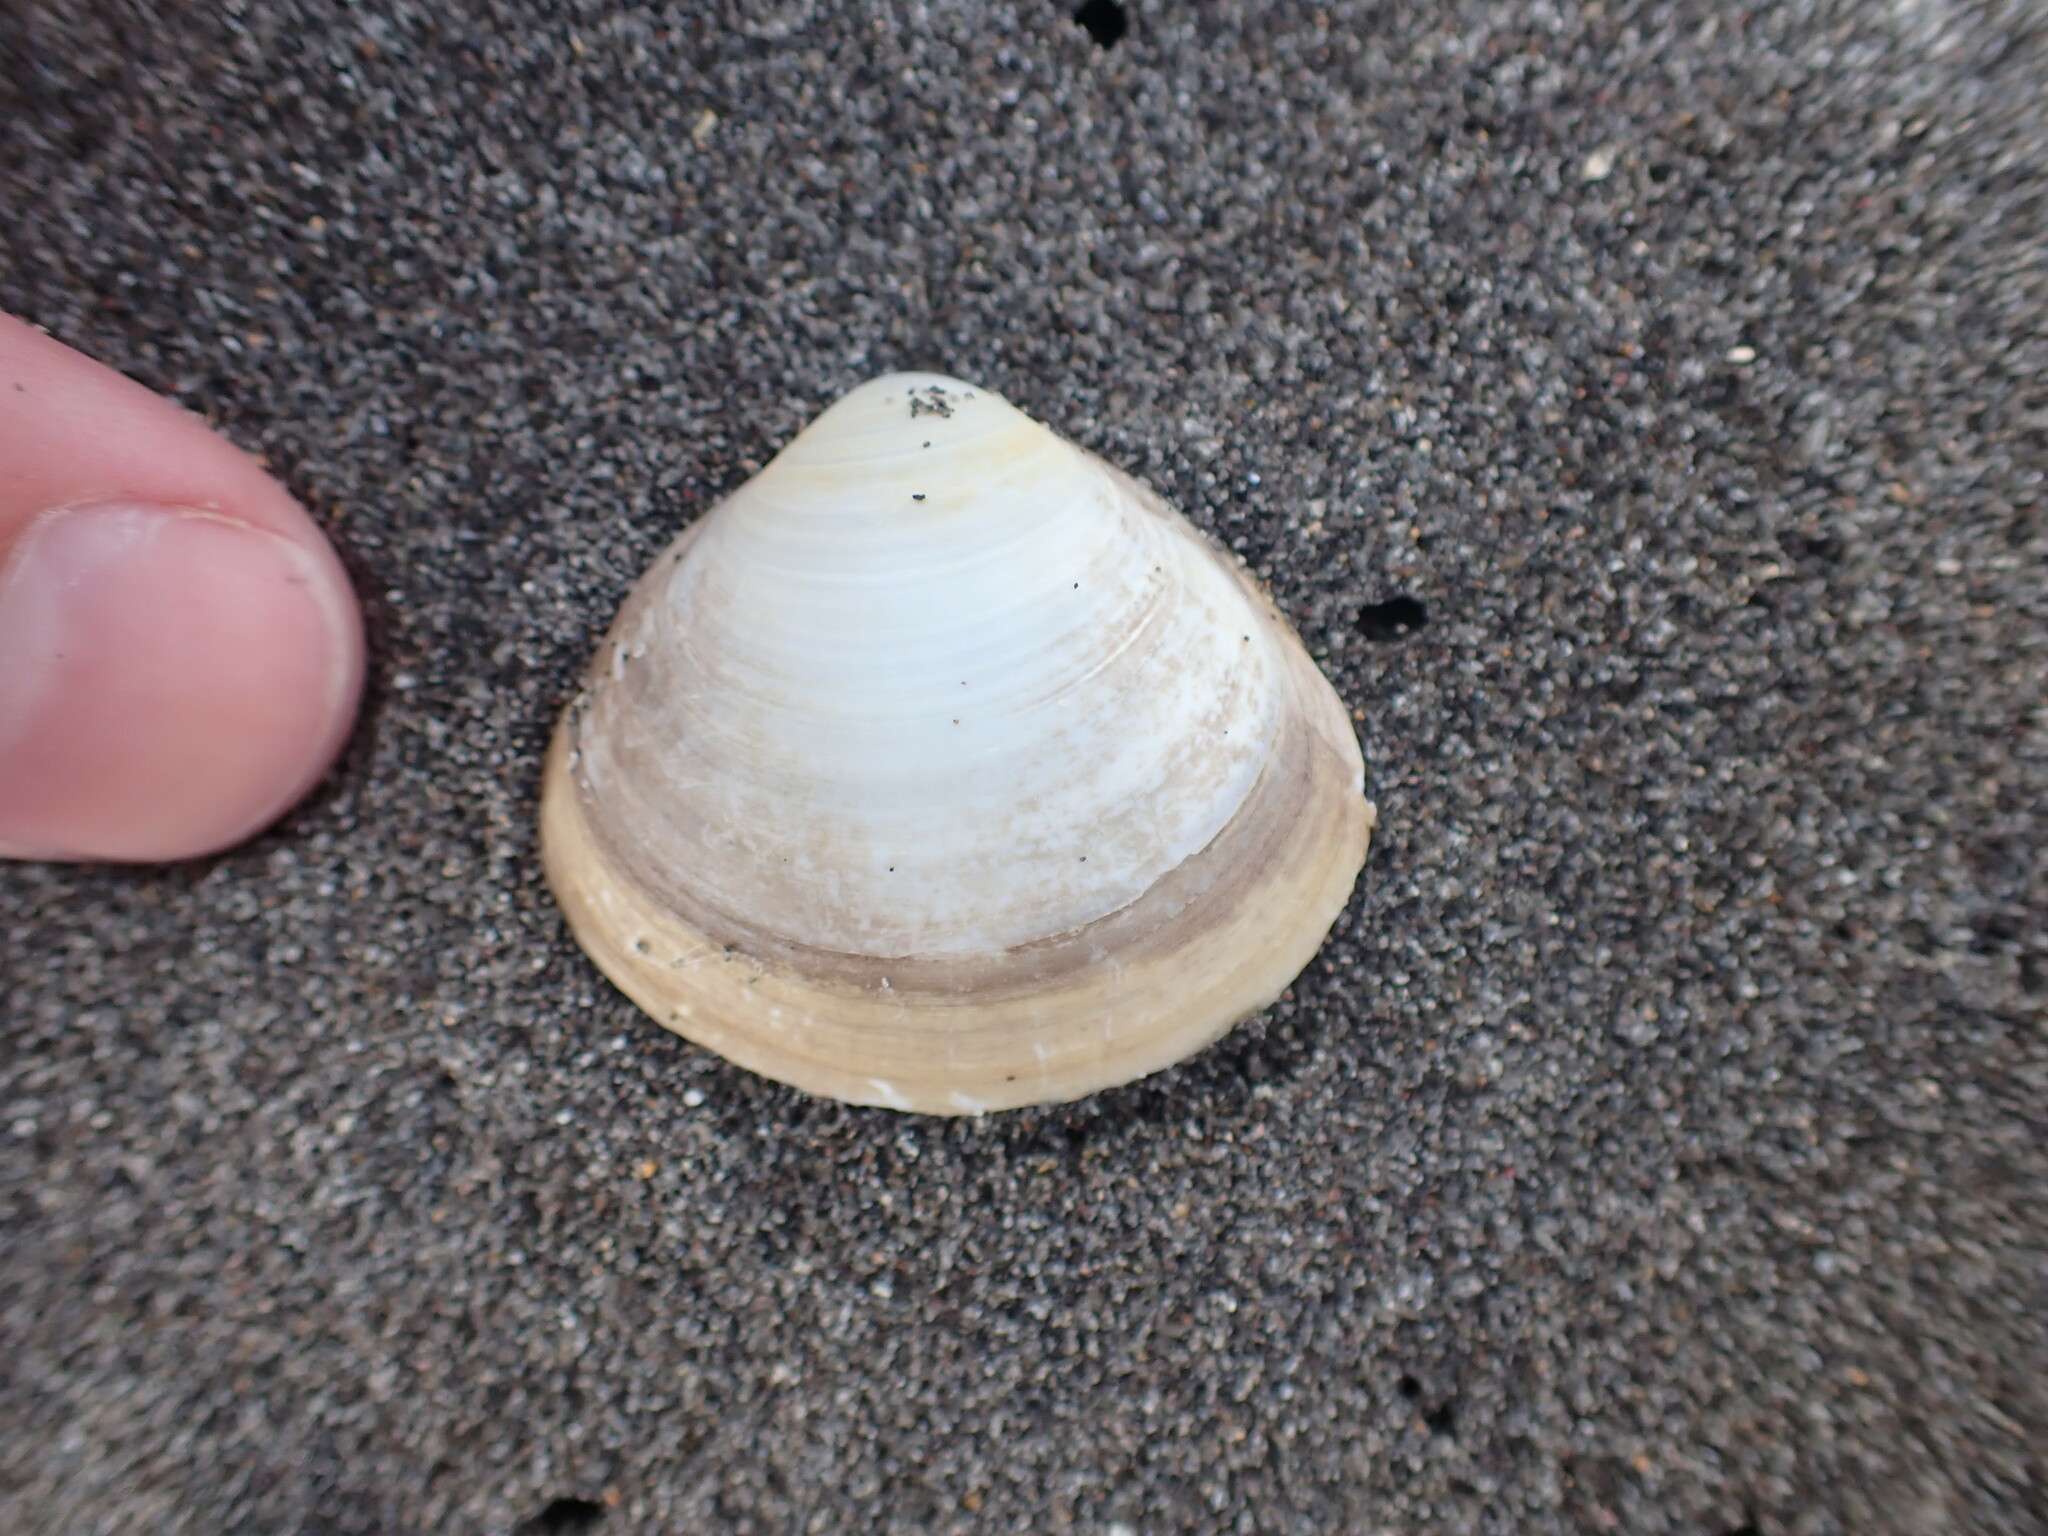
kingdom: Animalia
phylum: Mollusca
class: Bivalvia
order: Venerida
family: Mactridae
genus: Spisula
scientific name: Spisula discors
